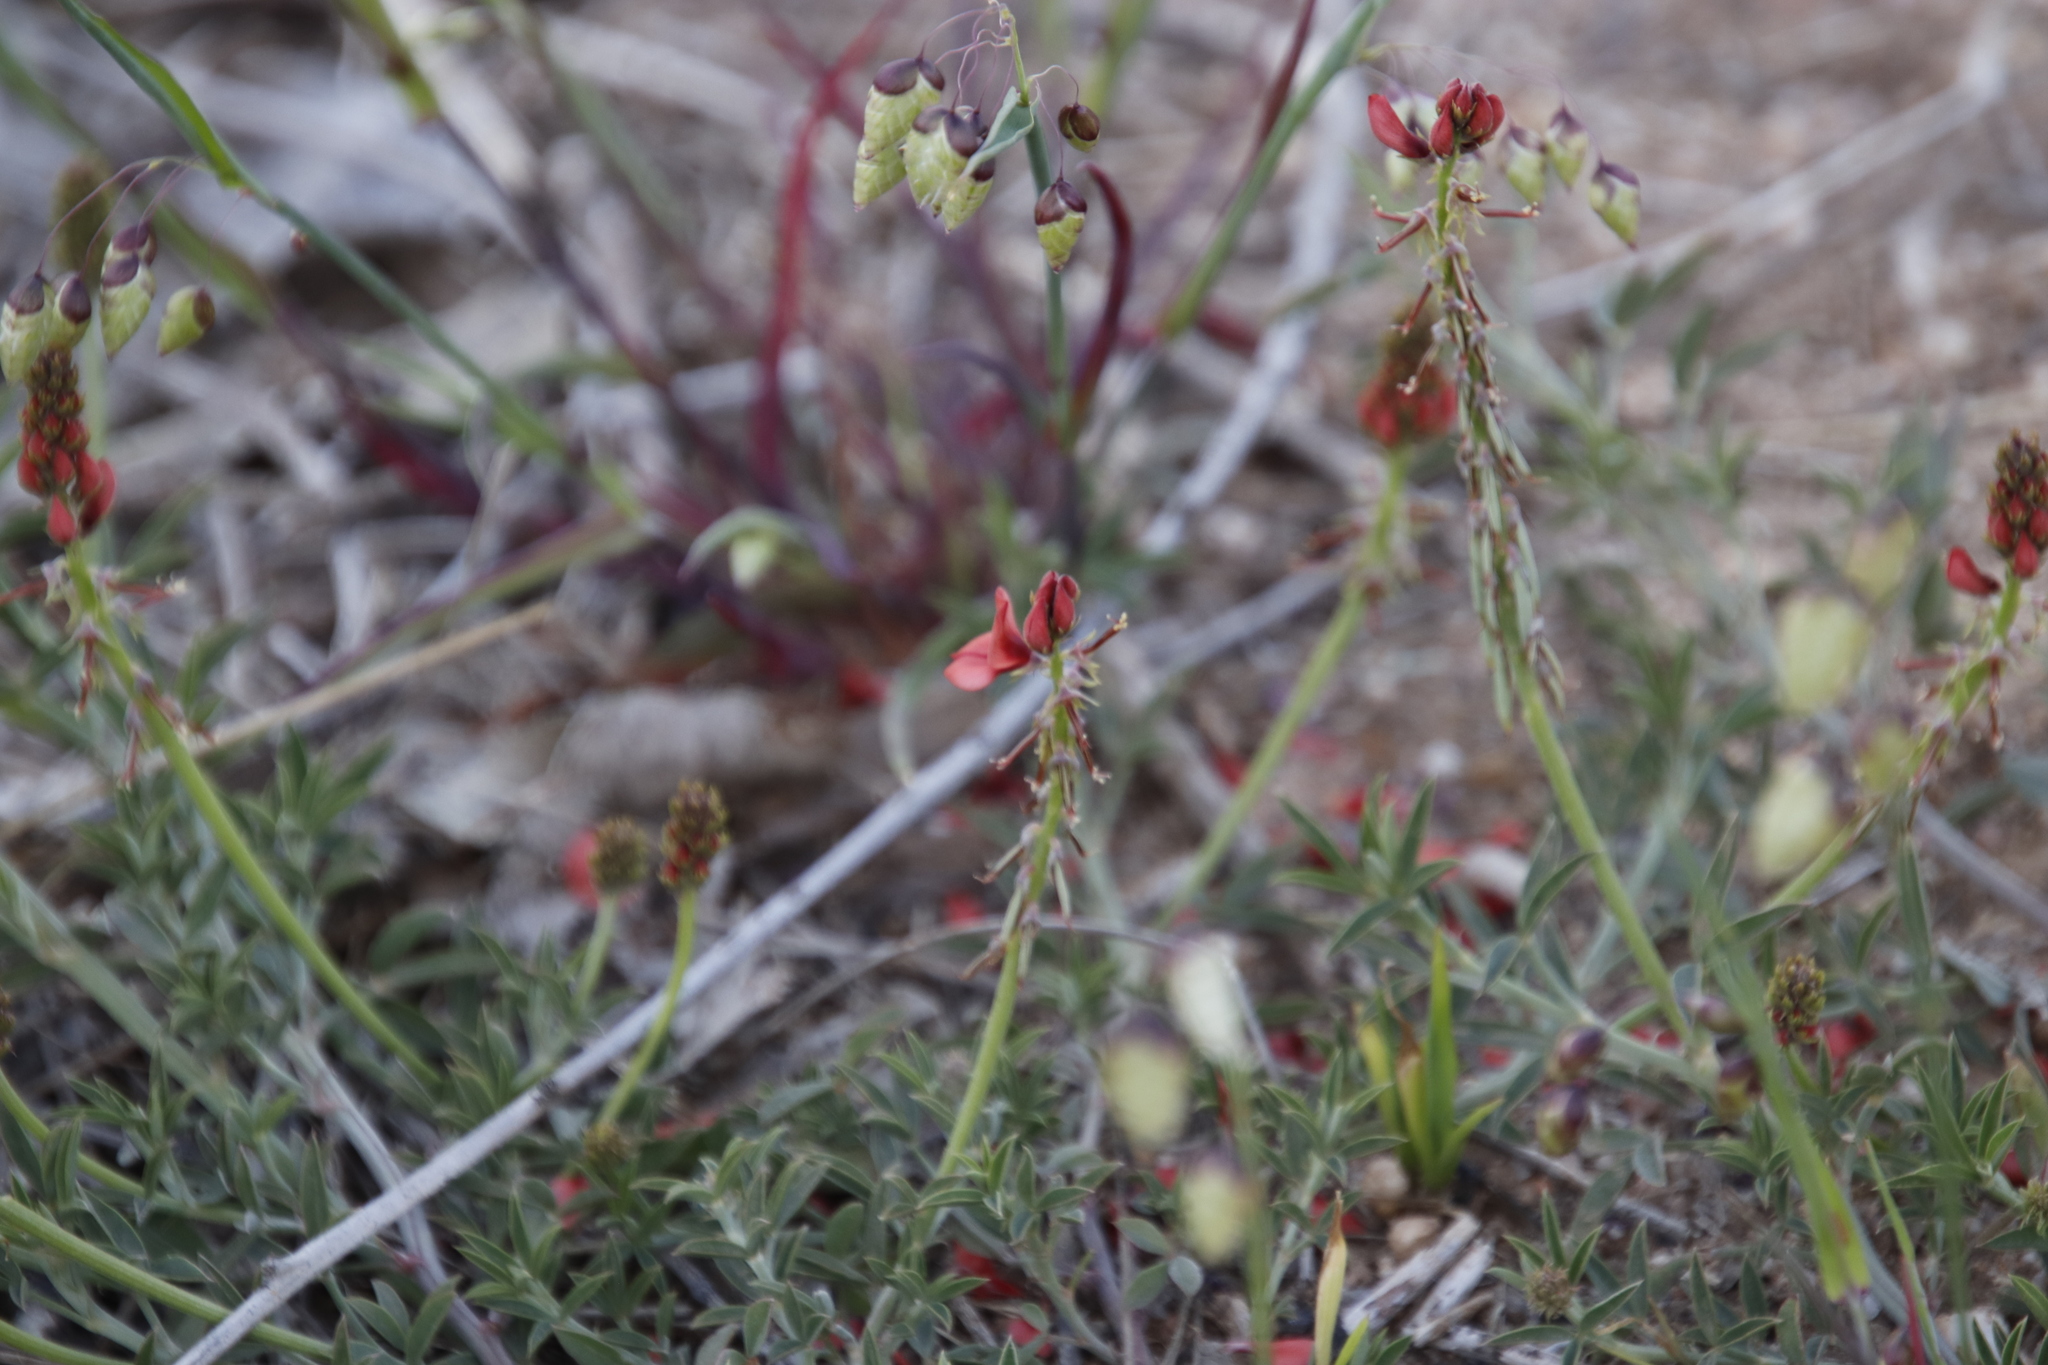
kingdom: Plantae
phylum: Tracheophyta
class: Magnoliopsida
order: Fabales
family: Fabaceae
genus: Indigofera
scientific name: Indigofera complanata
